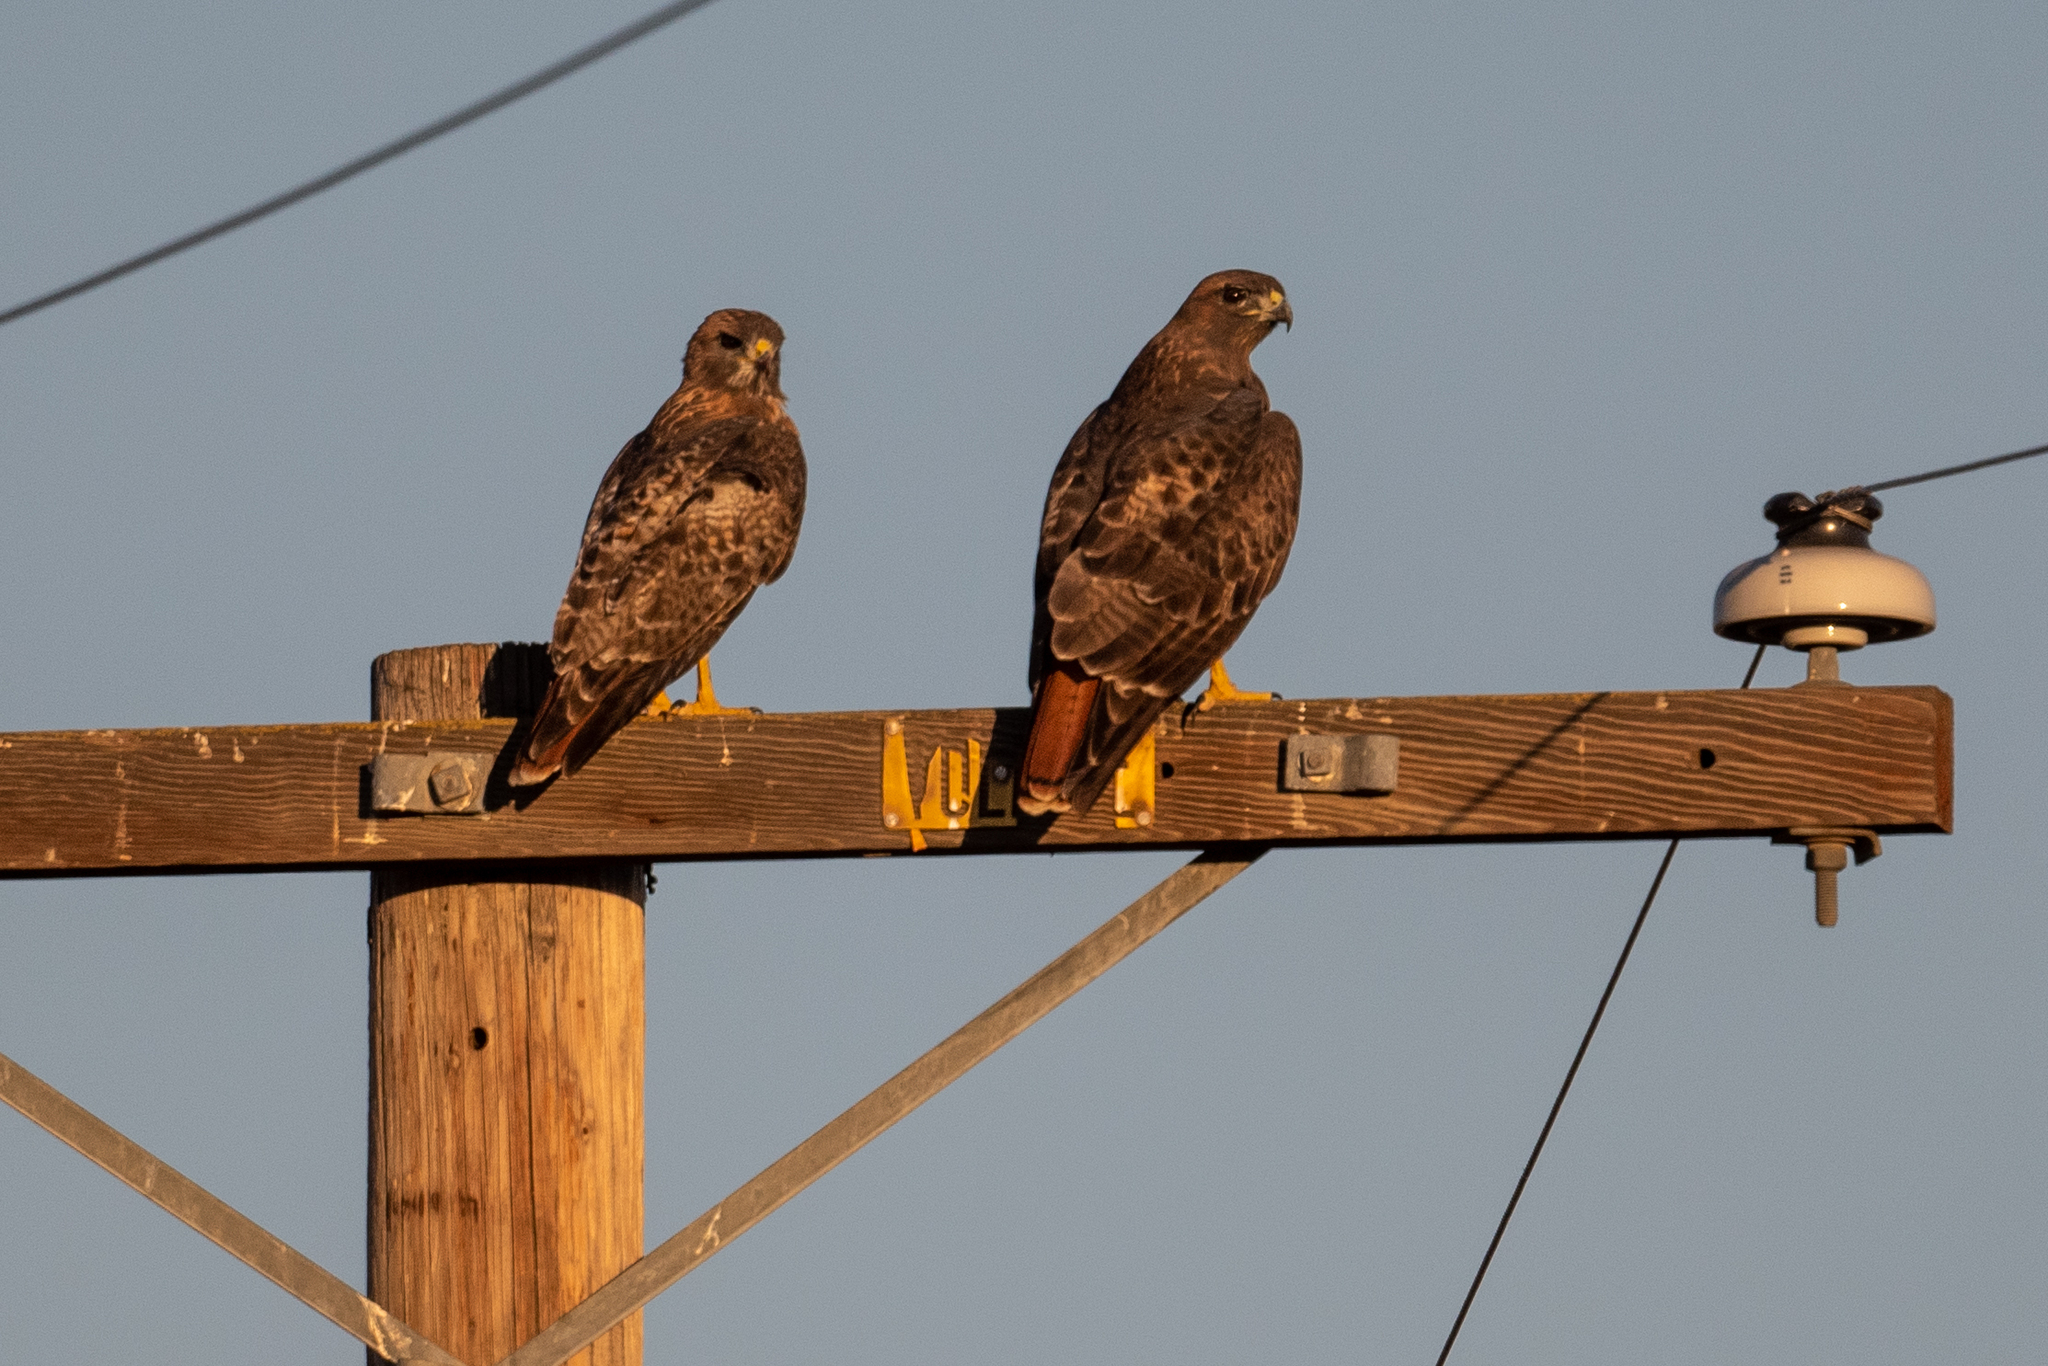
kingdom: Animalia
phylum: Chordata
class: Aves
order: Accipitriformes
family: Accipitridae
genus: Buteo
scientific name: Buteo jamaicensis
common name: Red-tailed hawk
